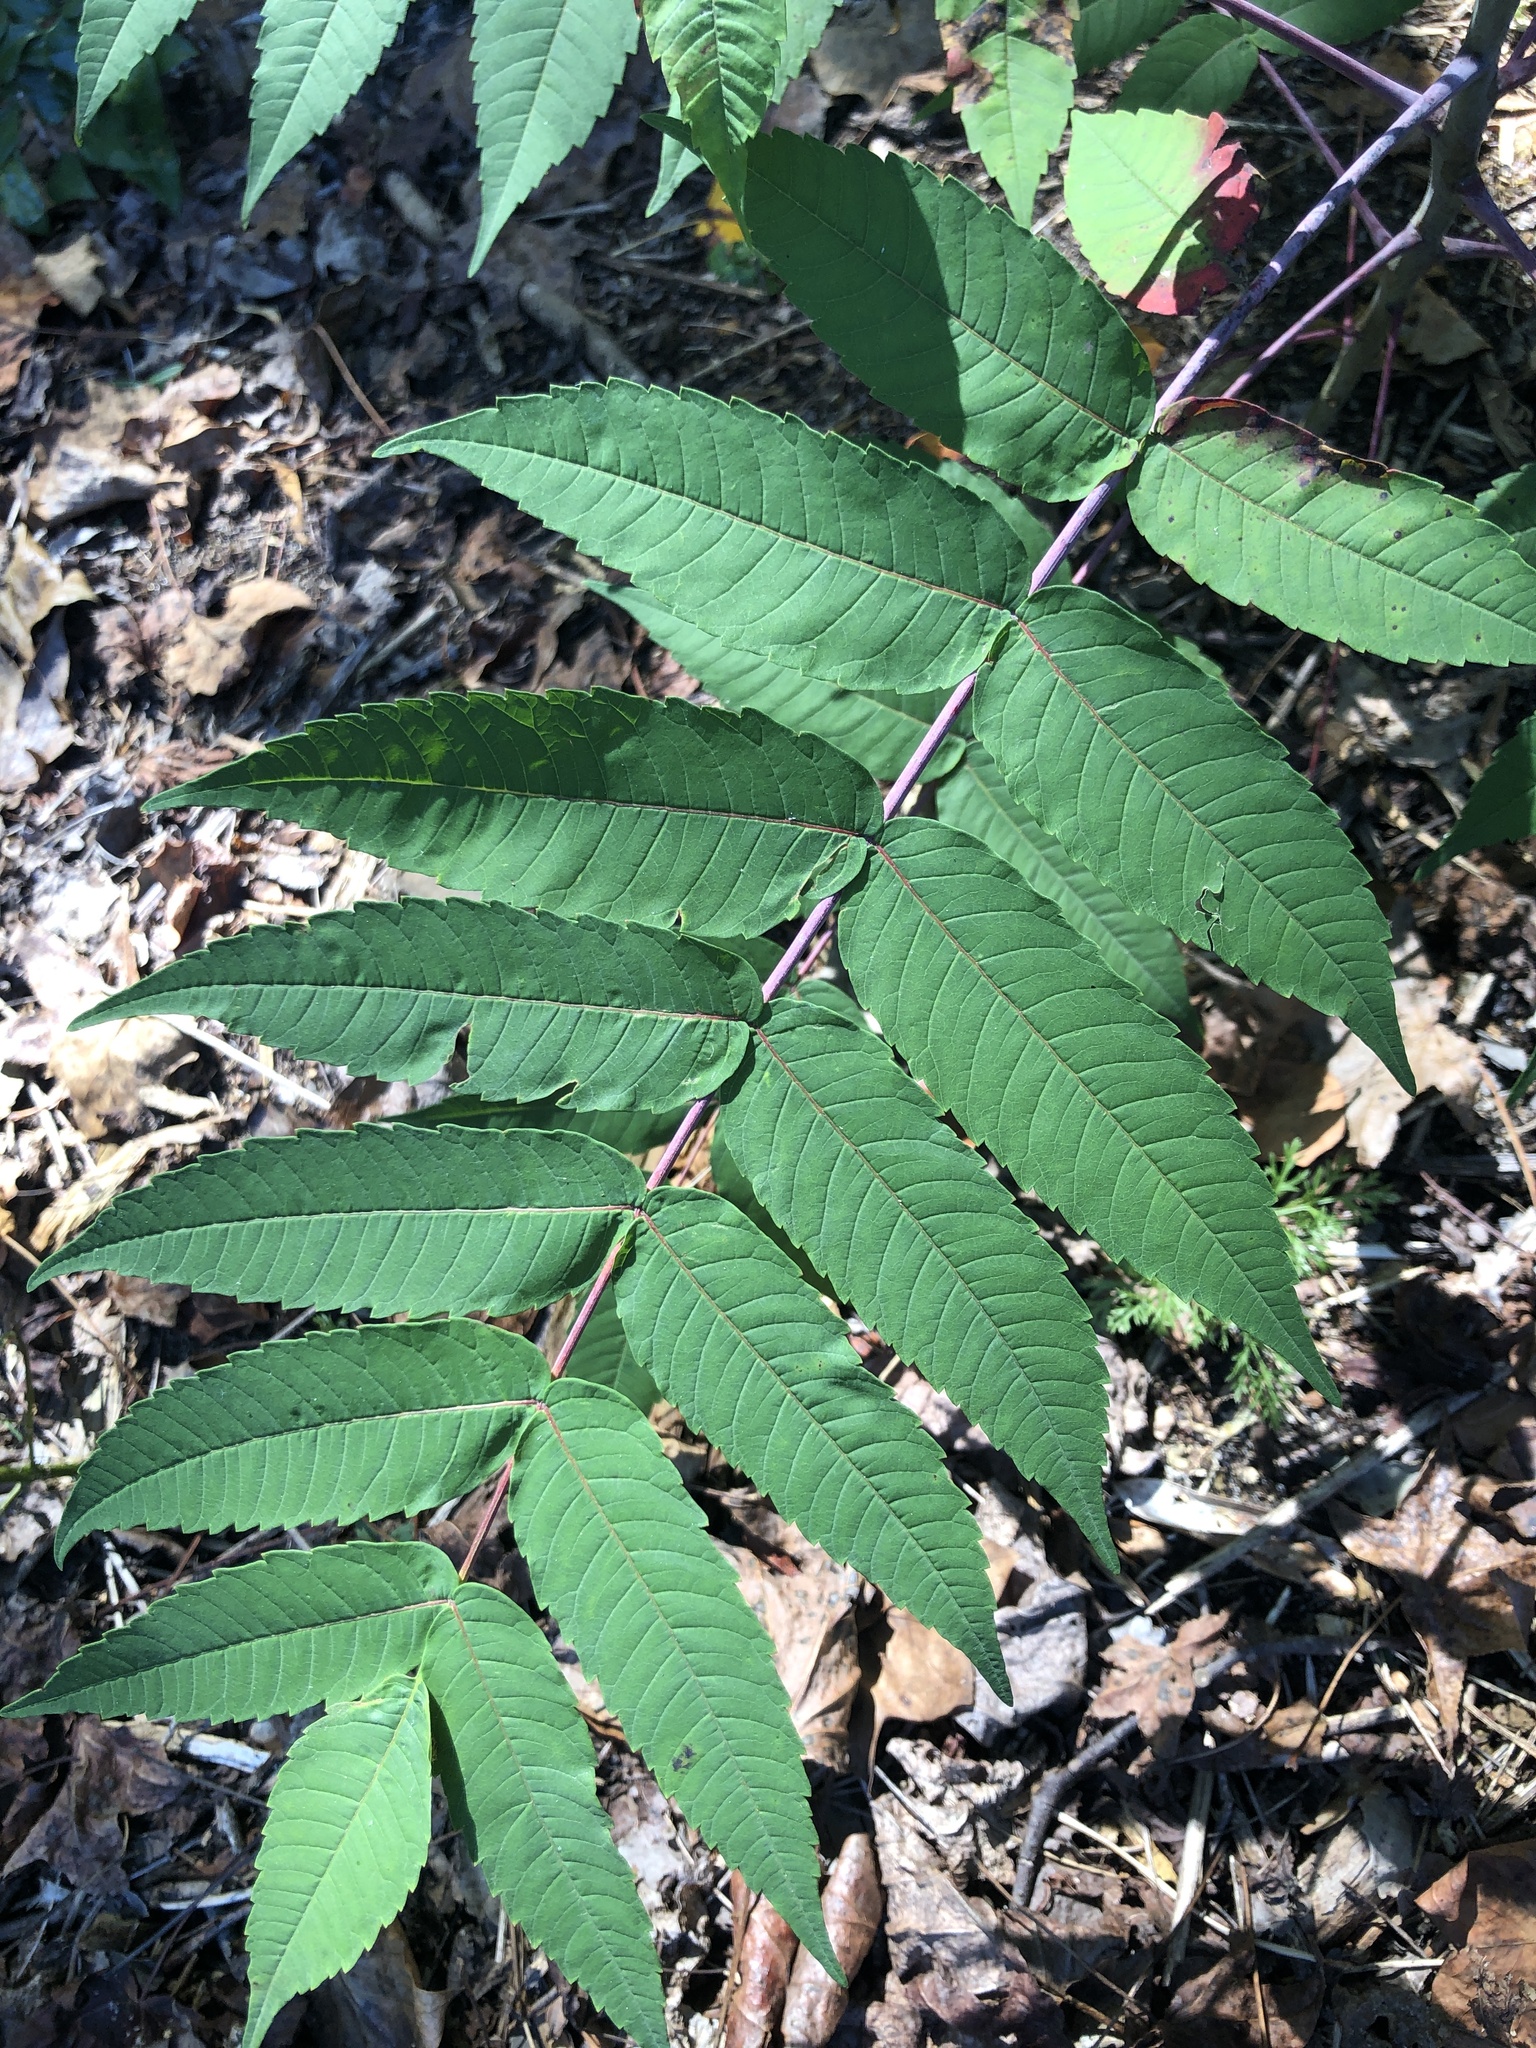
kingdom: Plantae
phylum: Tracheophyta
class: Magnoliopsida
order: Sapindales
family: Anacardiaceae
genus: Rhus
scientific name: Rhus glabra
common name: Scarlet sumac
